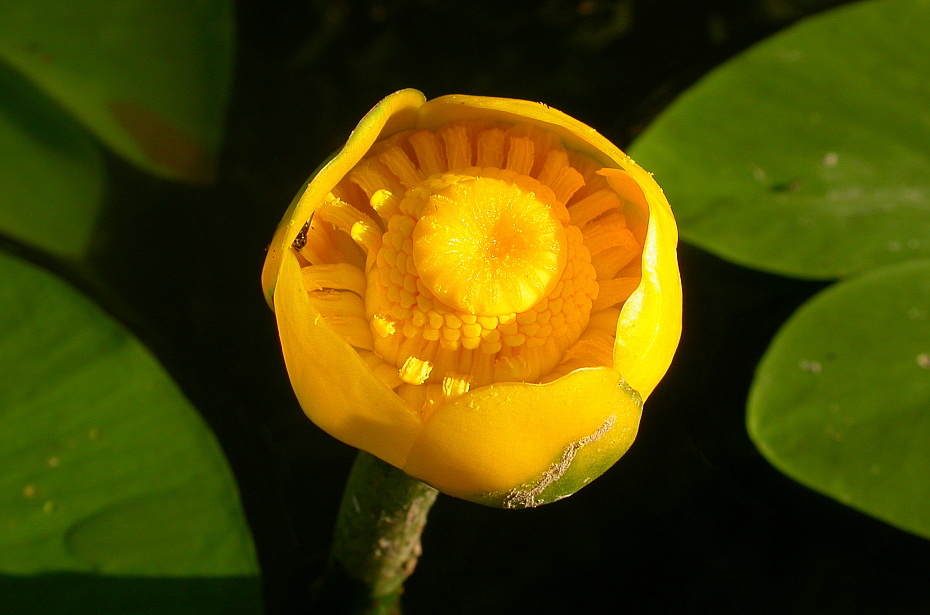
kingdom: Plantae
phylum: Tracheophyta
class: Magnoliopsida
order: Nymphaeales
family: Nymphaeaceae
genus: Nuphar
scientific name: Nuphar lutea
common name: Yellow water-lily
